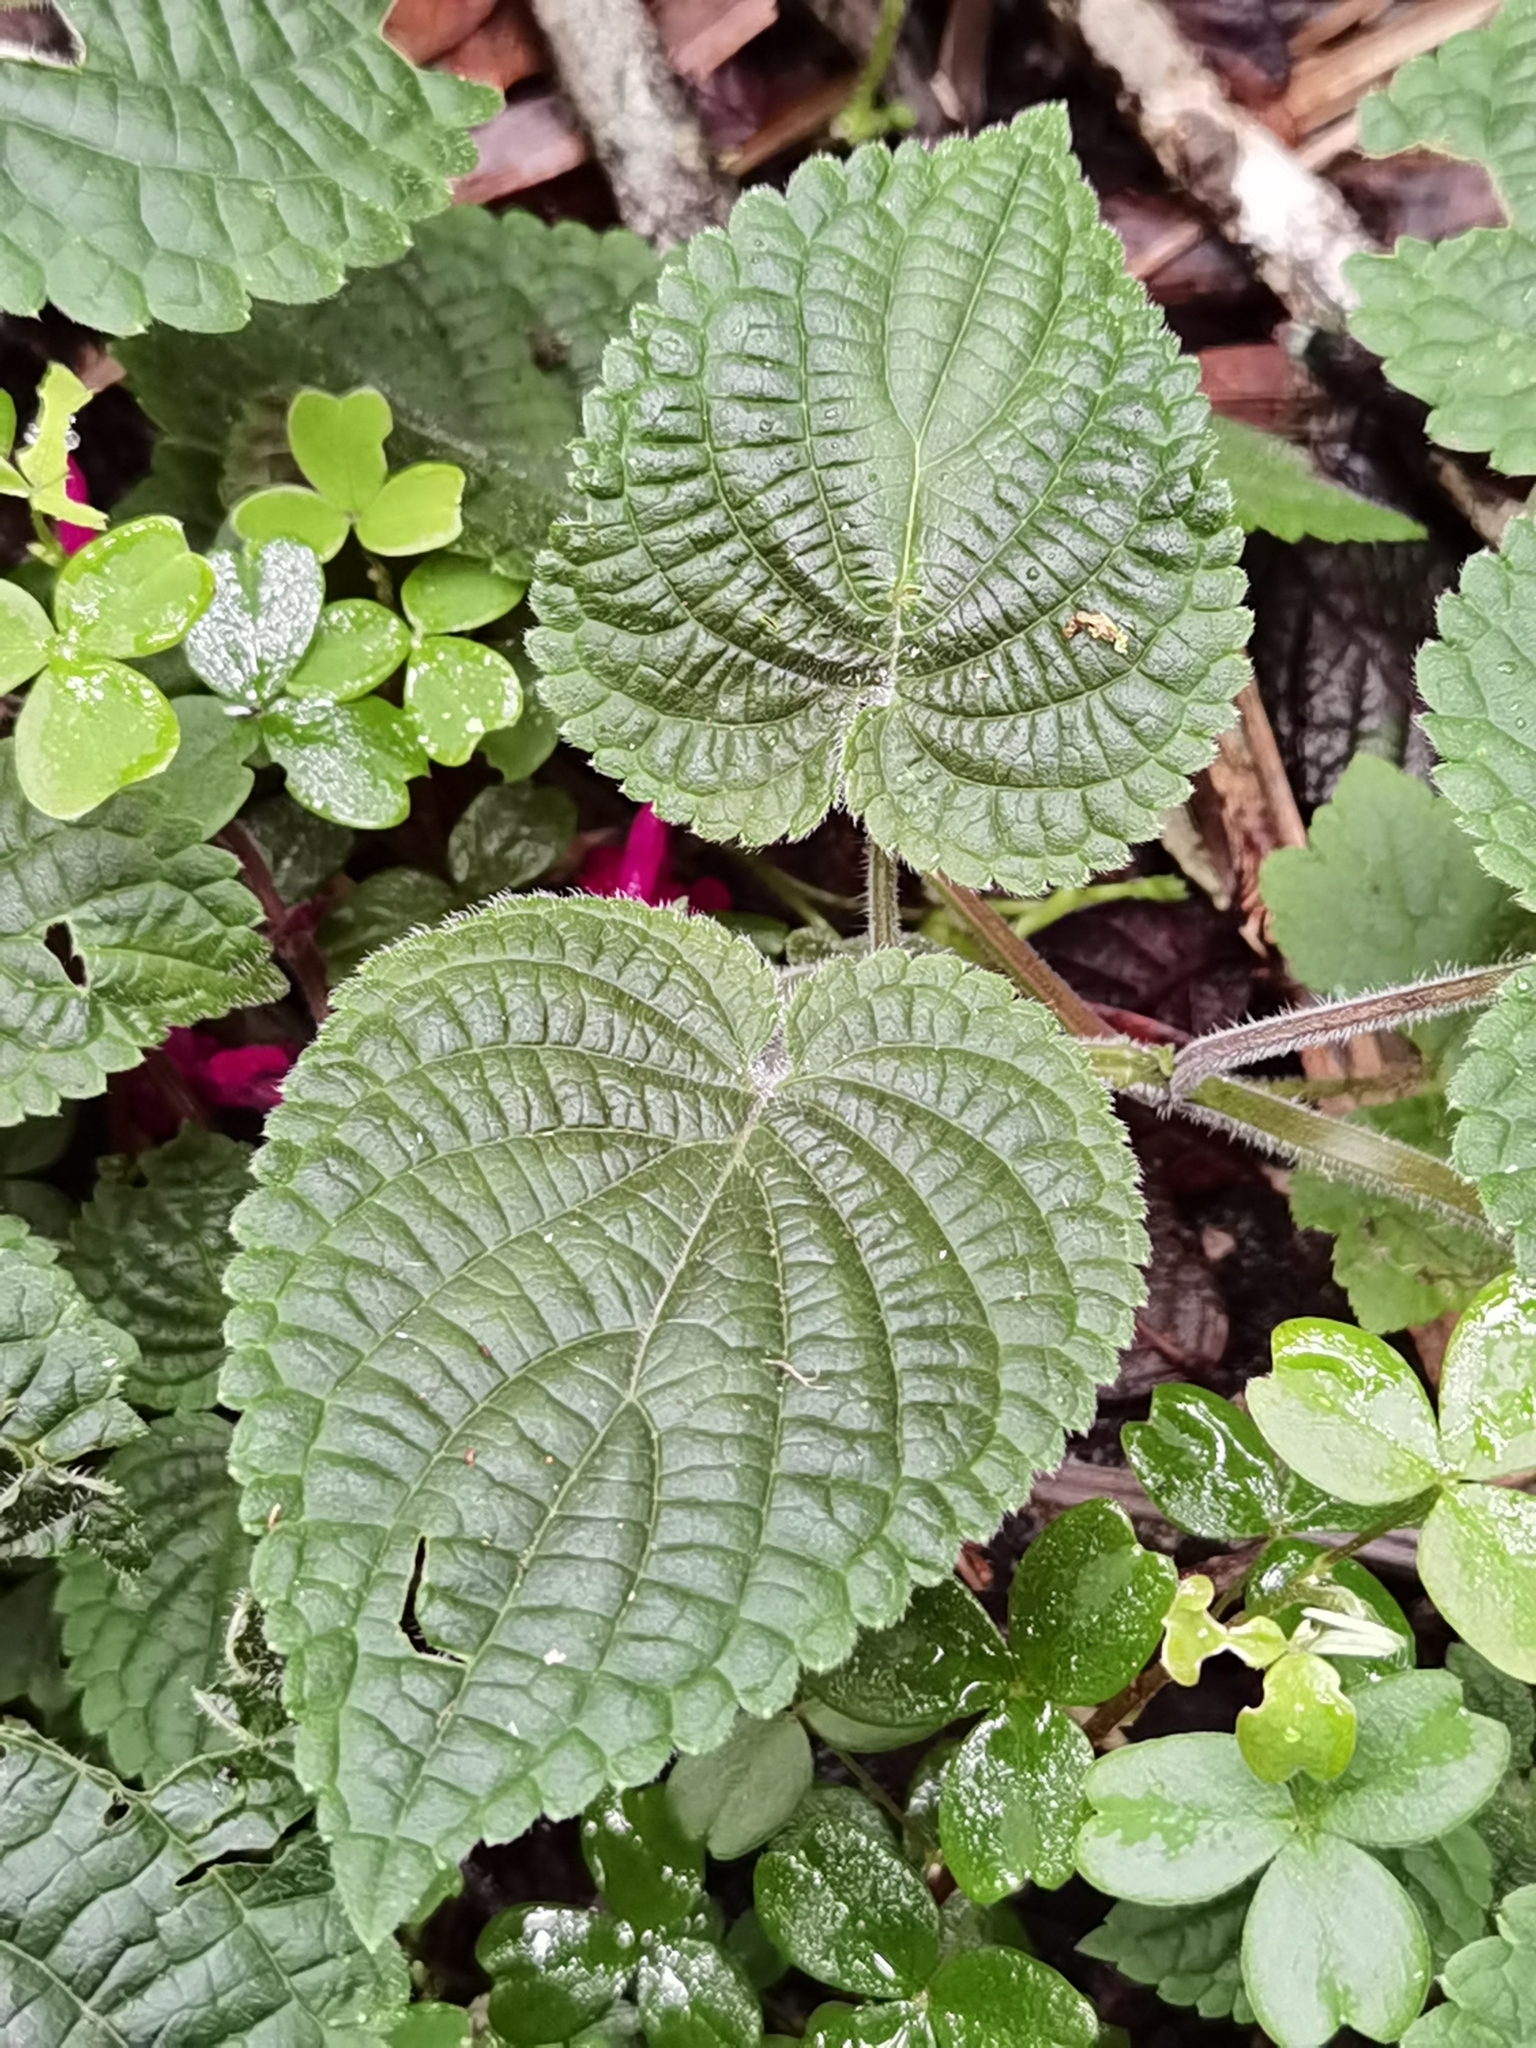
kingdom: Plantae
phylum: Tracheophyta
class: Magnoliopsida
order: Lamiales
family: Lamiaceae
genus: Salvia
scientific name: Salvia carnea
